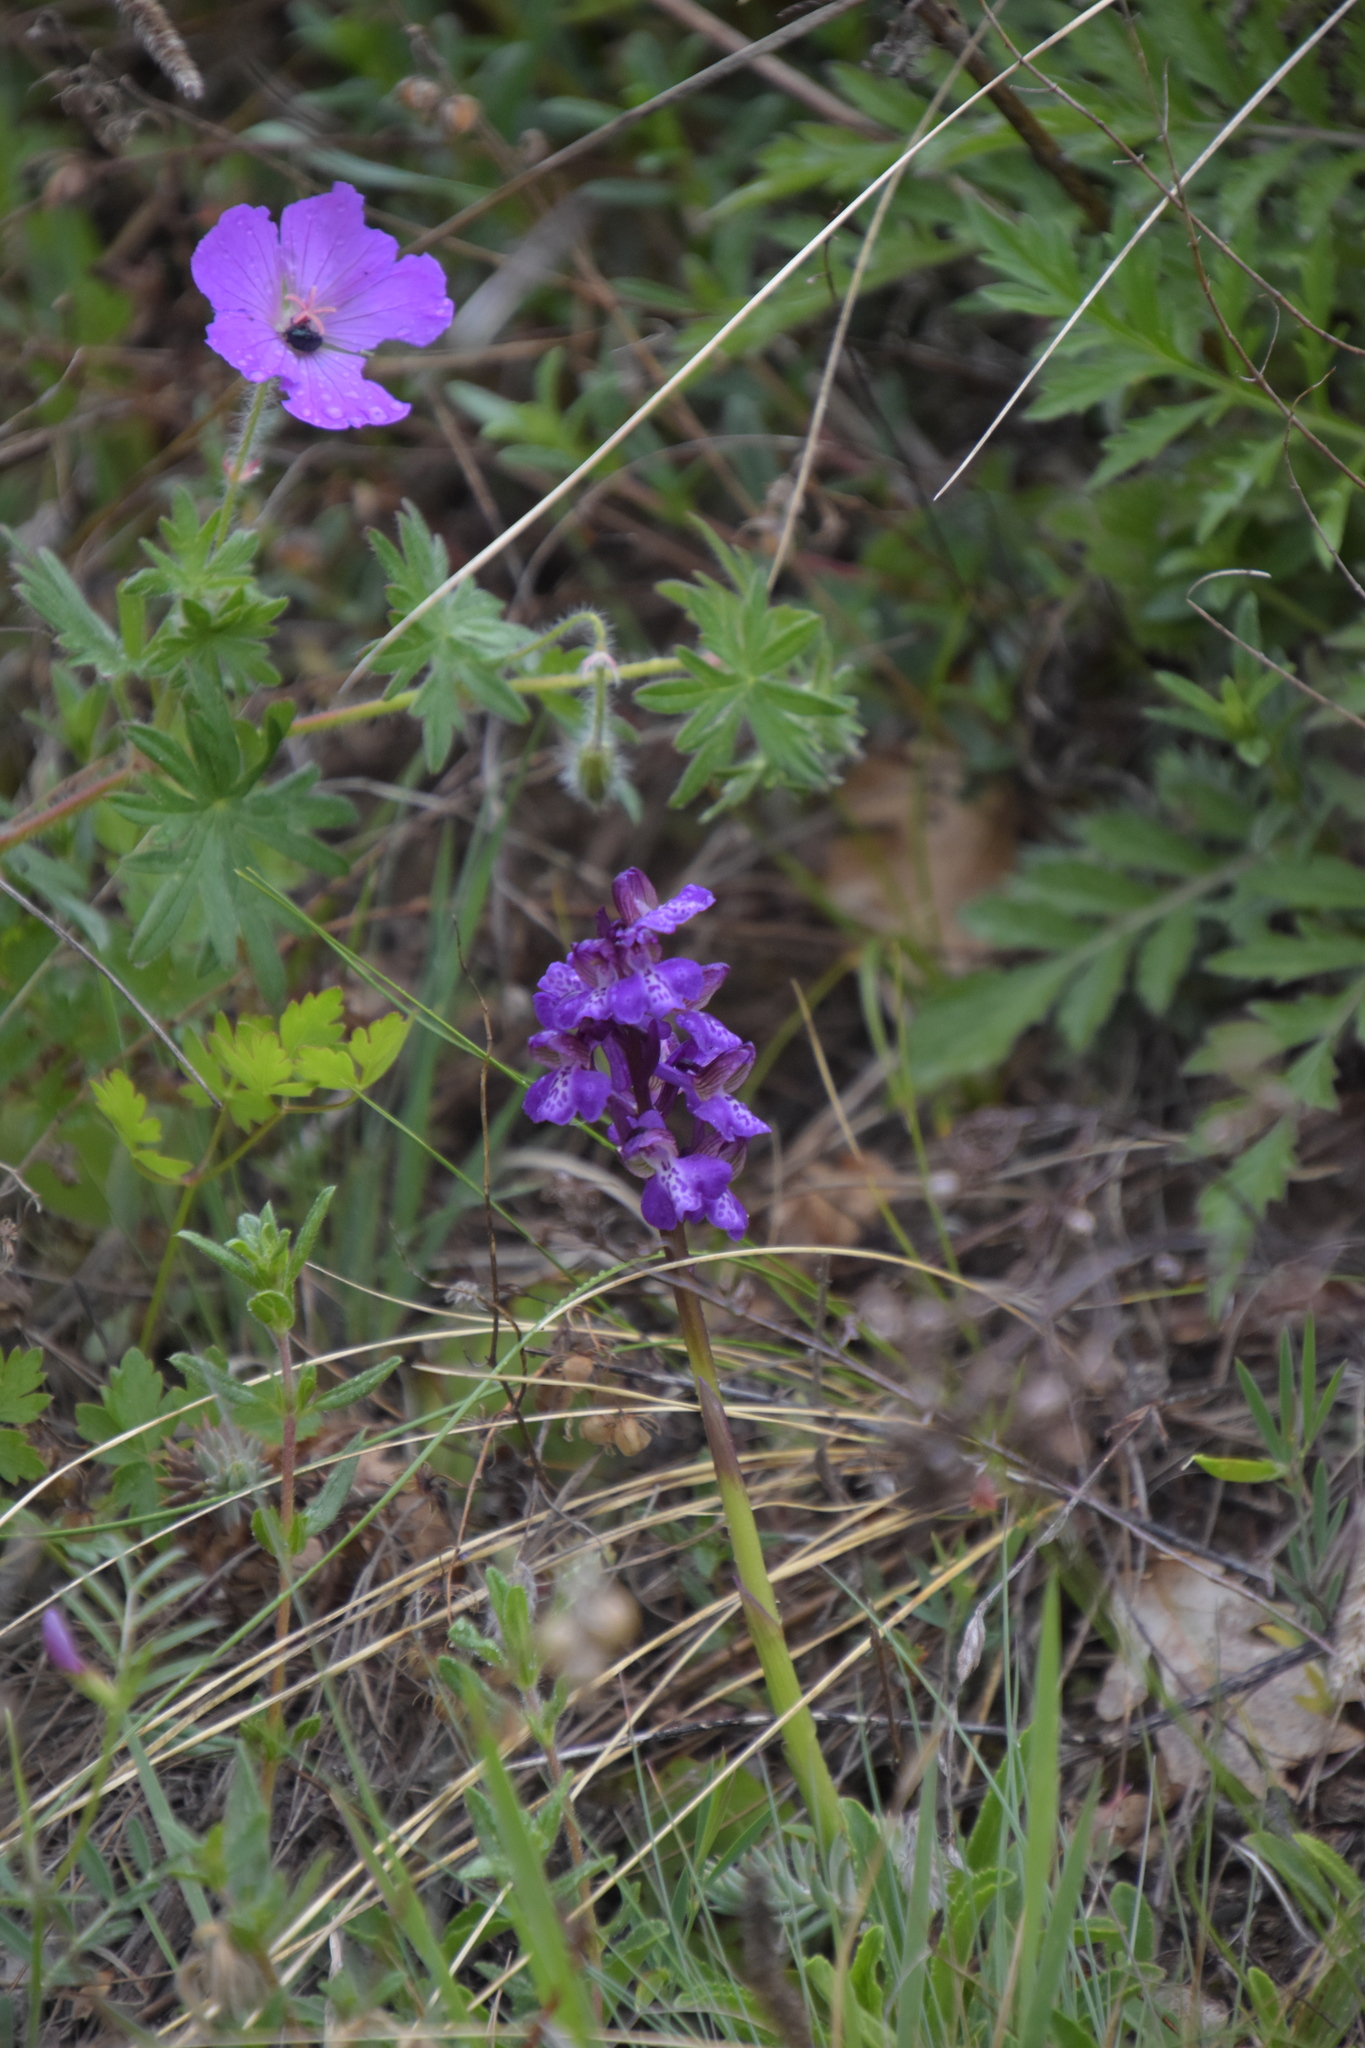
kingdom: Plantae
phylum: Tracheophyta
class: Liliopsida
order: Asparagales
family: Orchidaceae
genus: Anacamptis
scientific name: Anacamptis morio
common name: Green-winged orchid
